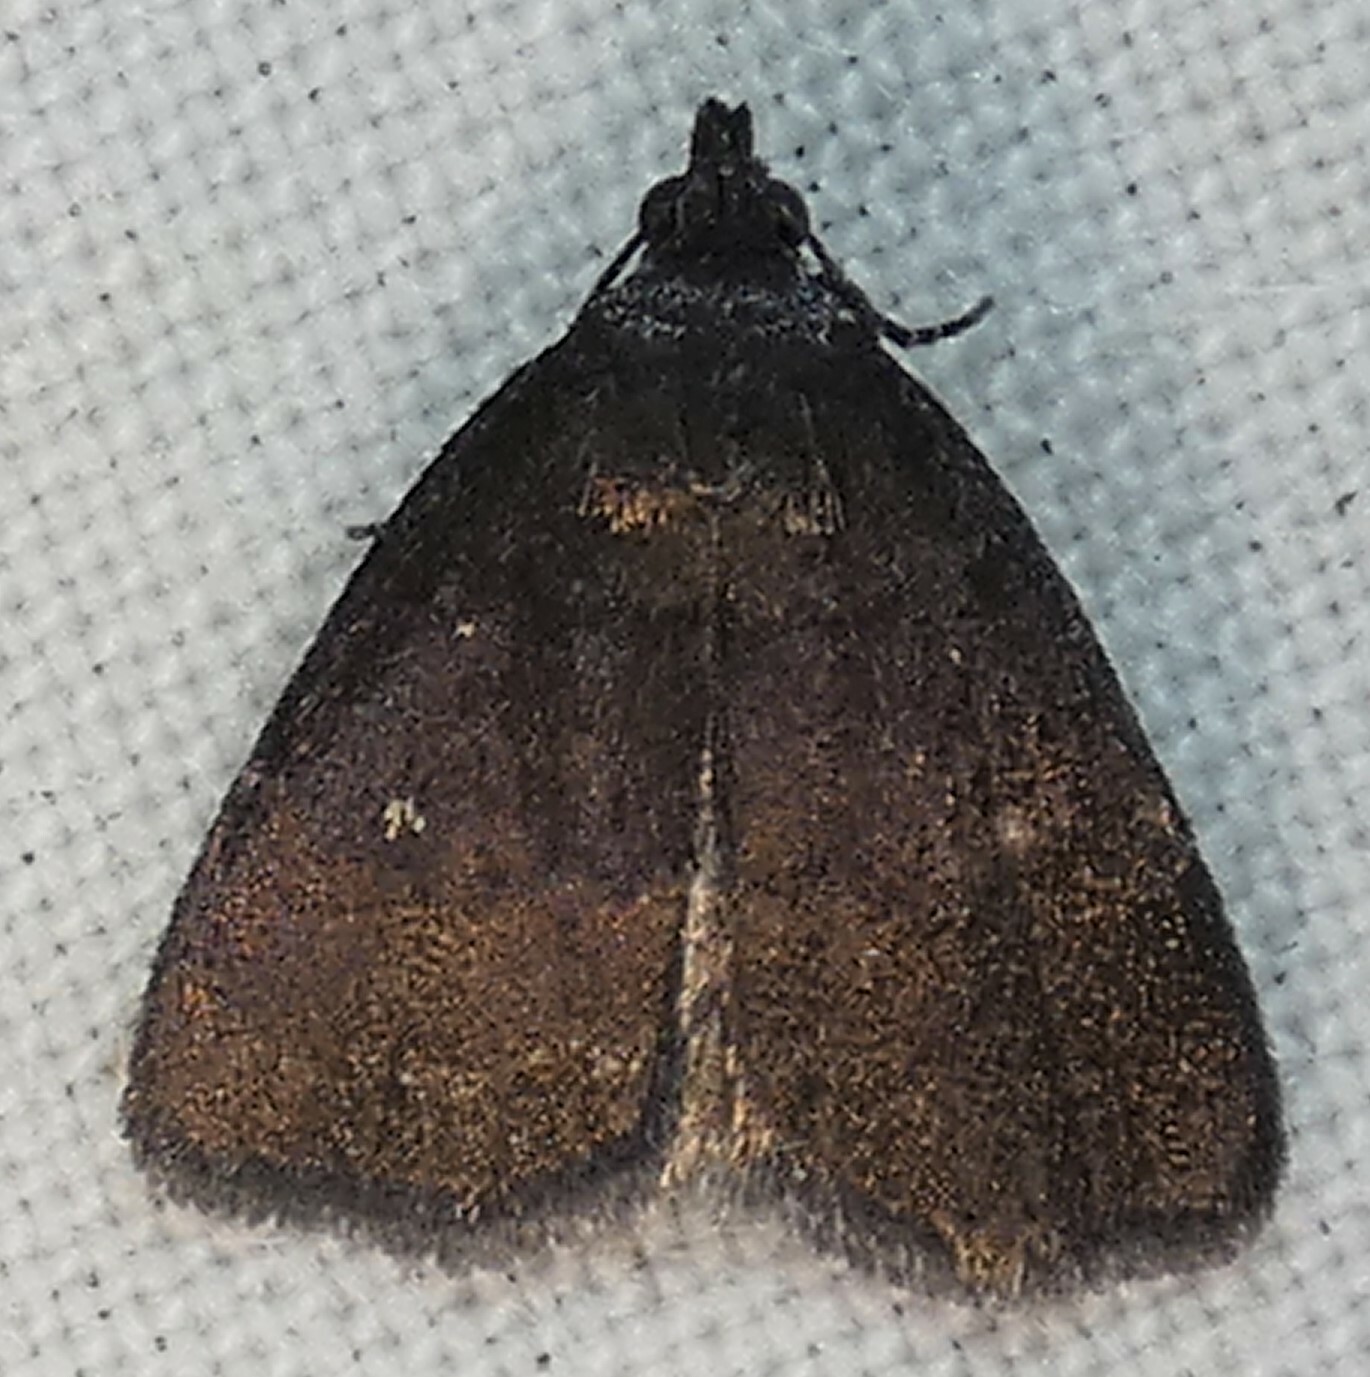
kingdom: Animalia
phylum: Arthropoda
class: Insecta
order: Lepidoptera
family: Erebidae
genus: Idia
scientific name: Idia rotundalis
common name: Rotund idia moth
